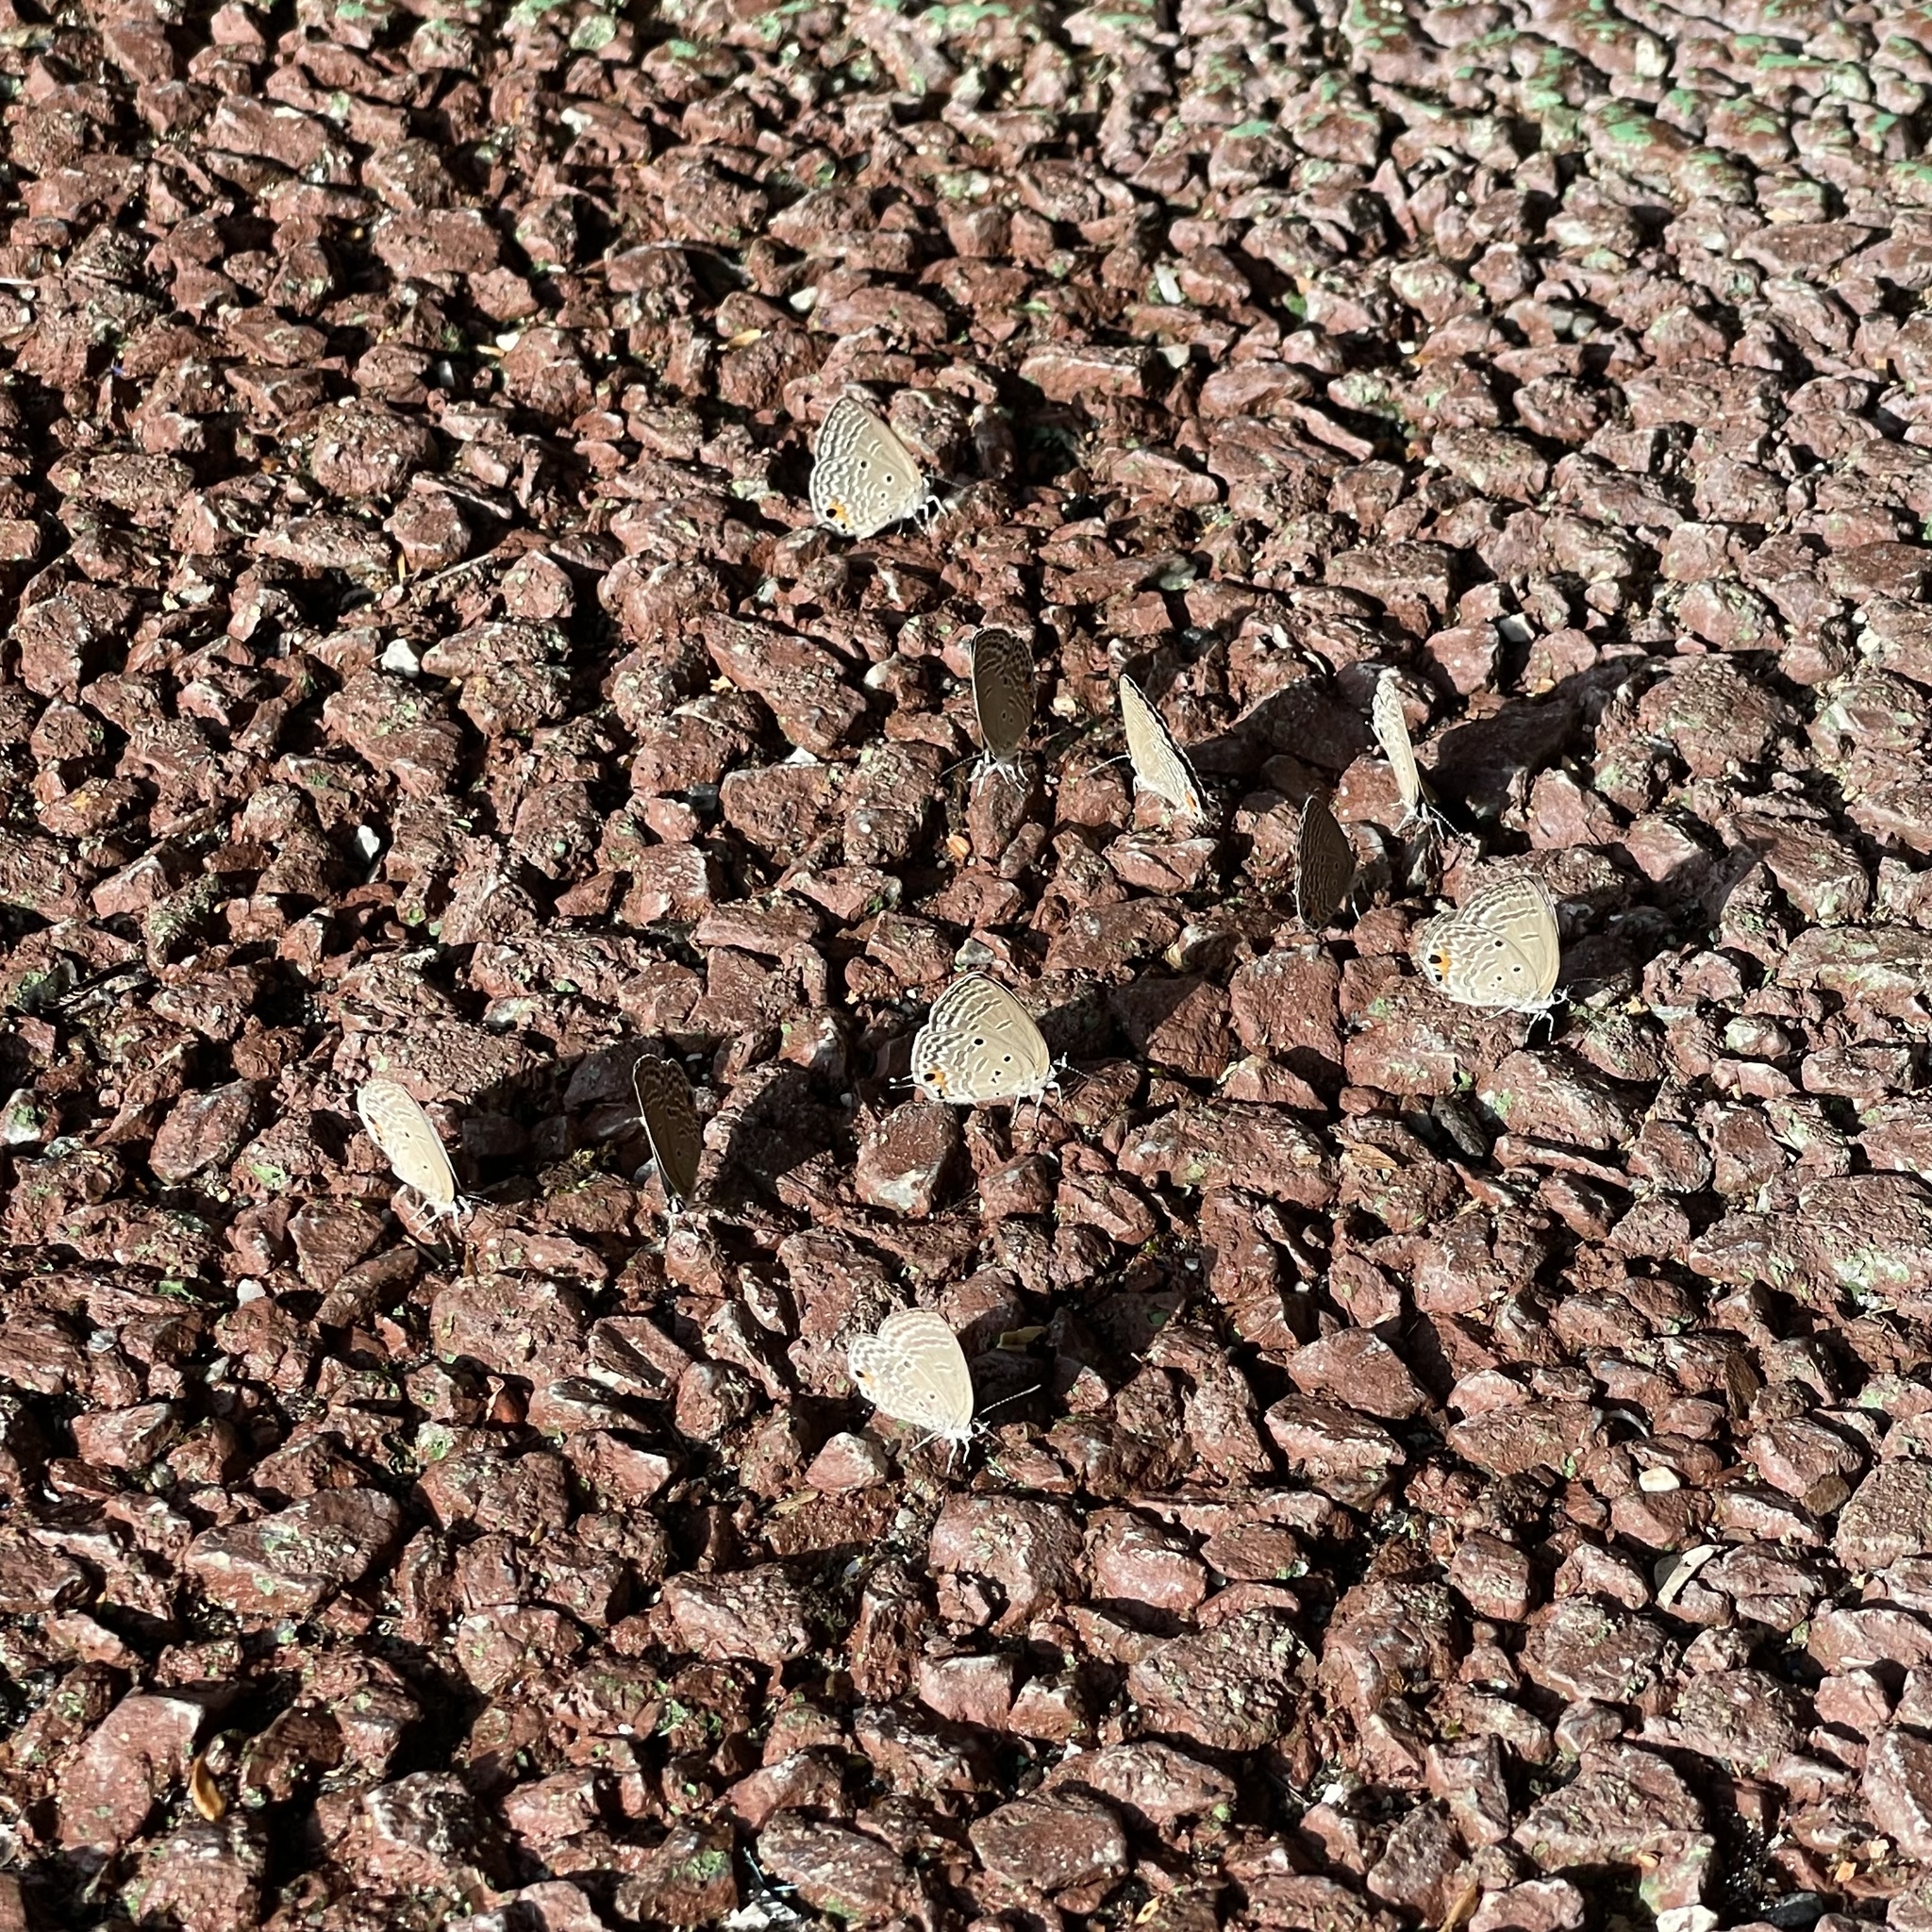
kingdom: Animalia
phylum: Arthropoda
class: Insecta
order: Lepidoptera
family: Lycaenidae
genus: Luthrodes
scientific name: Luthrodes pandava
